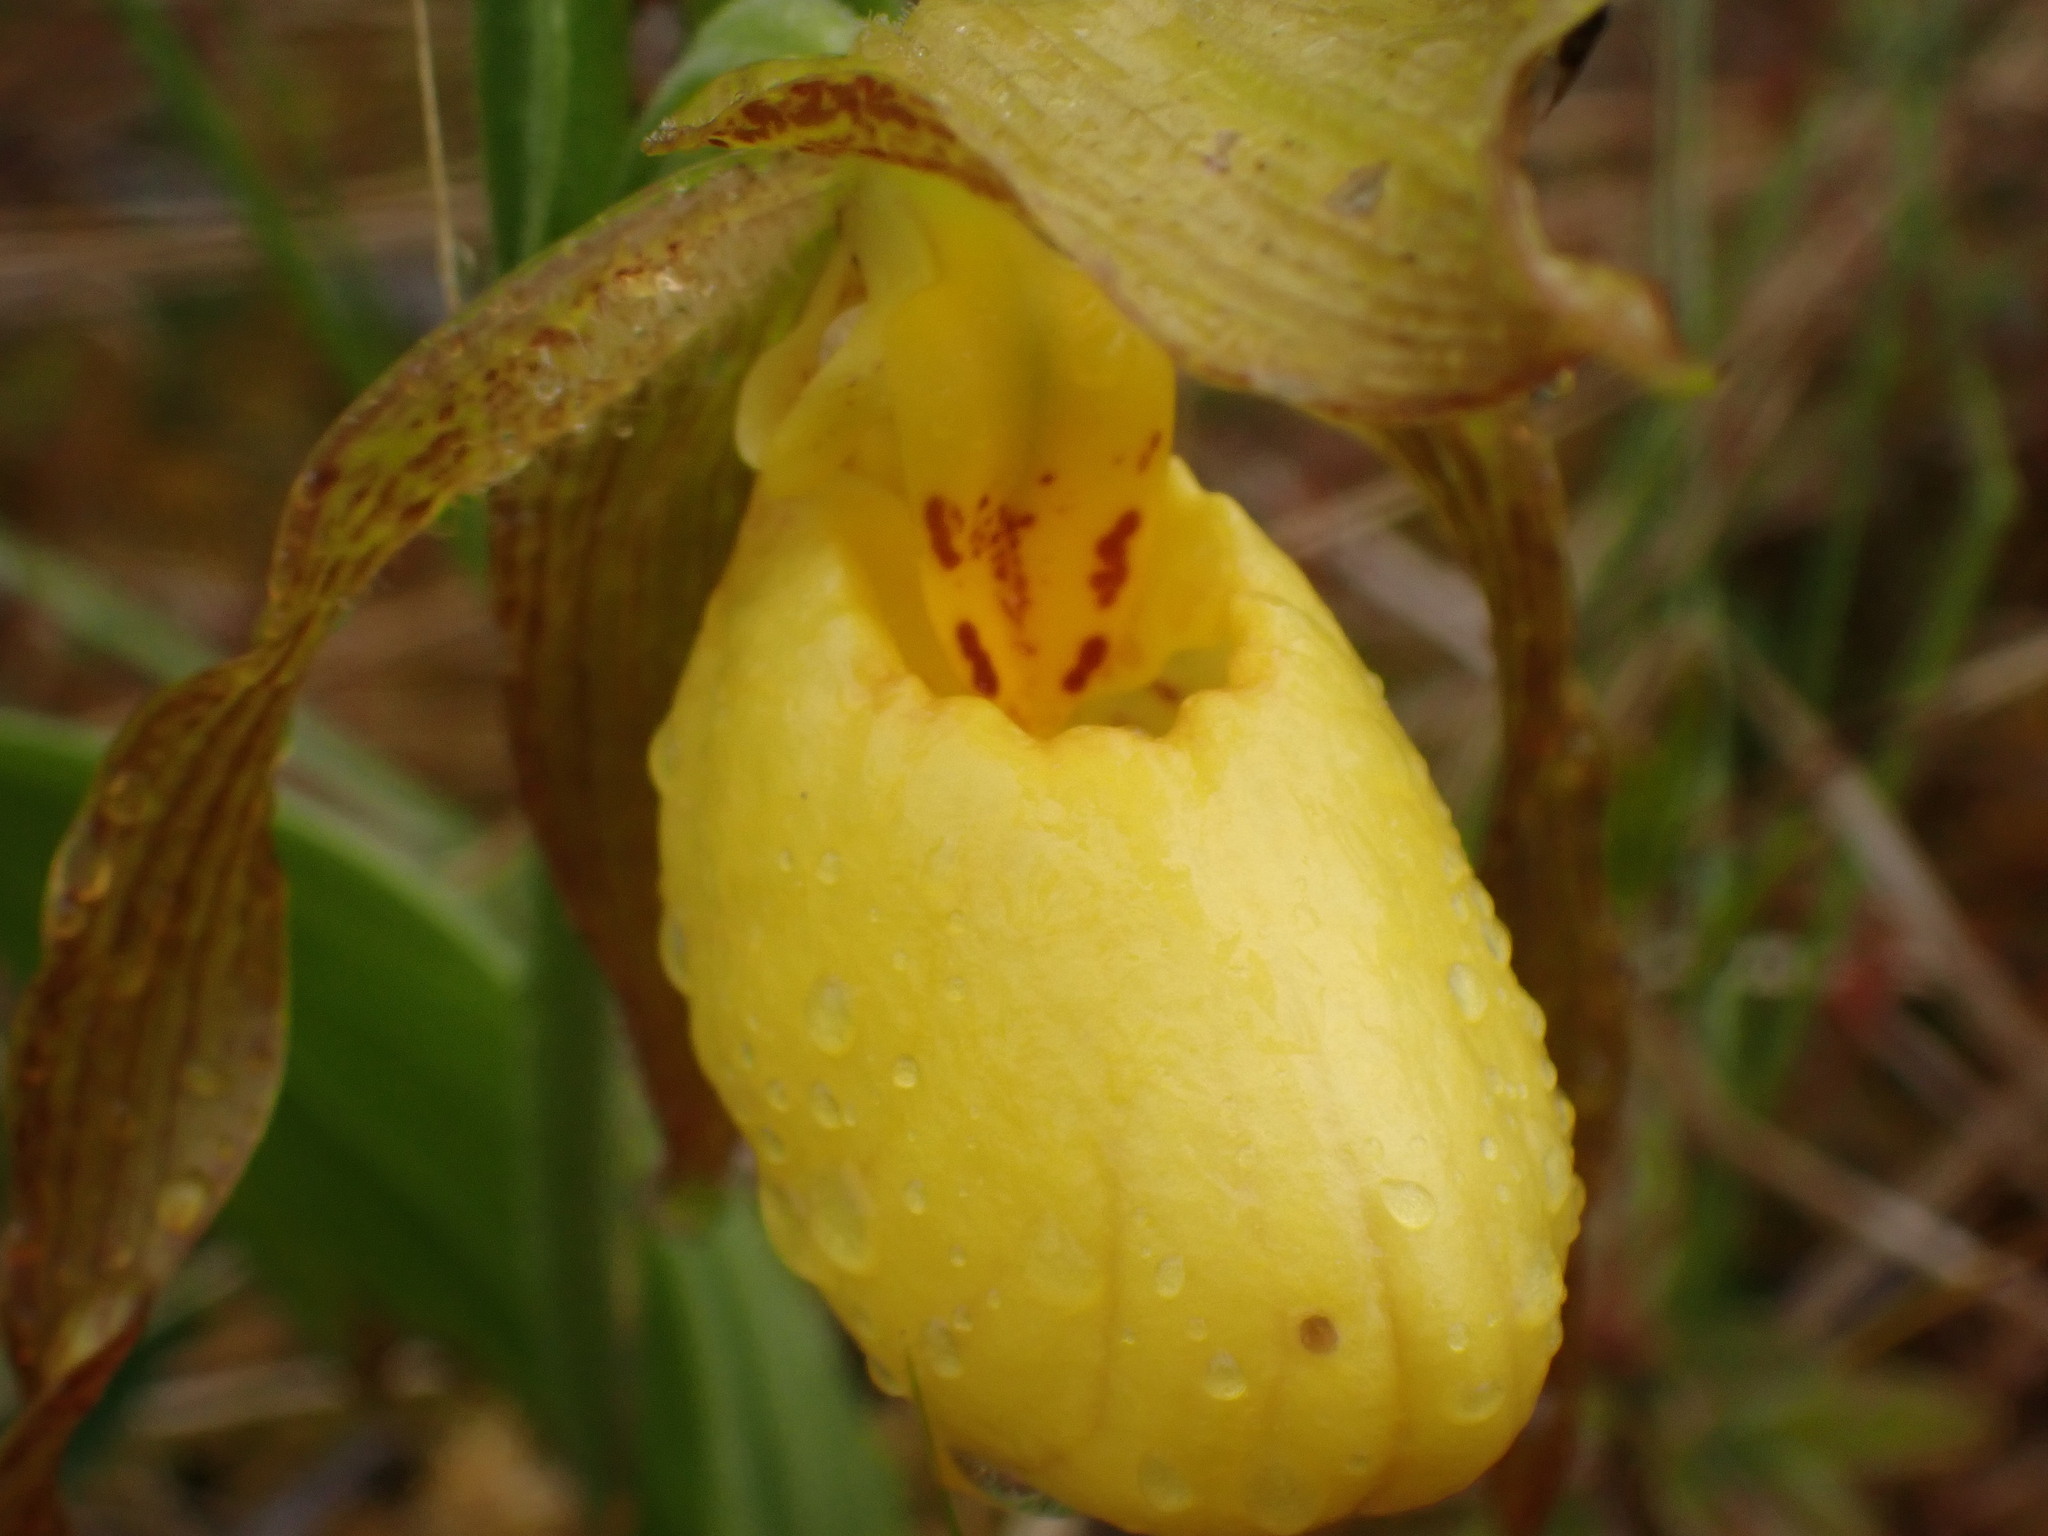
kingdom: Plantae
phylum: Tracheophyta
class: Liliopsida
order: Asparagales
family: Orchidaceae
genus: Cypripedium
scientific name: Cypripedium parviflorum
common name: American yellow lady's-slipper
